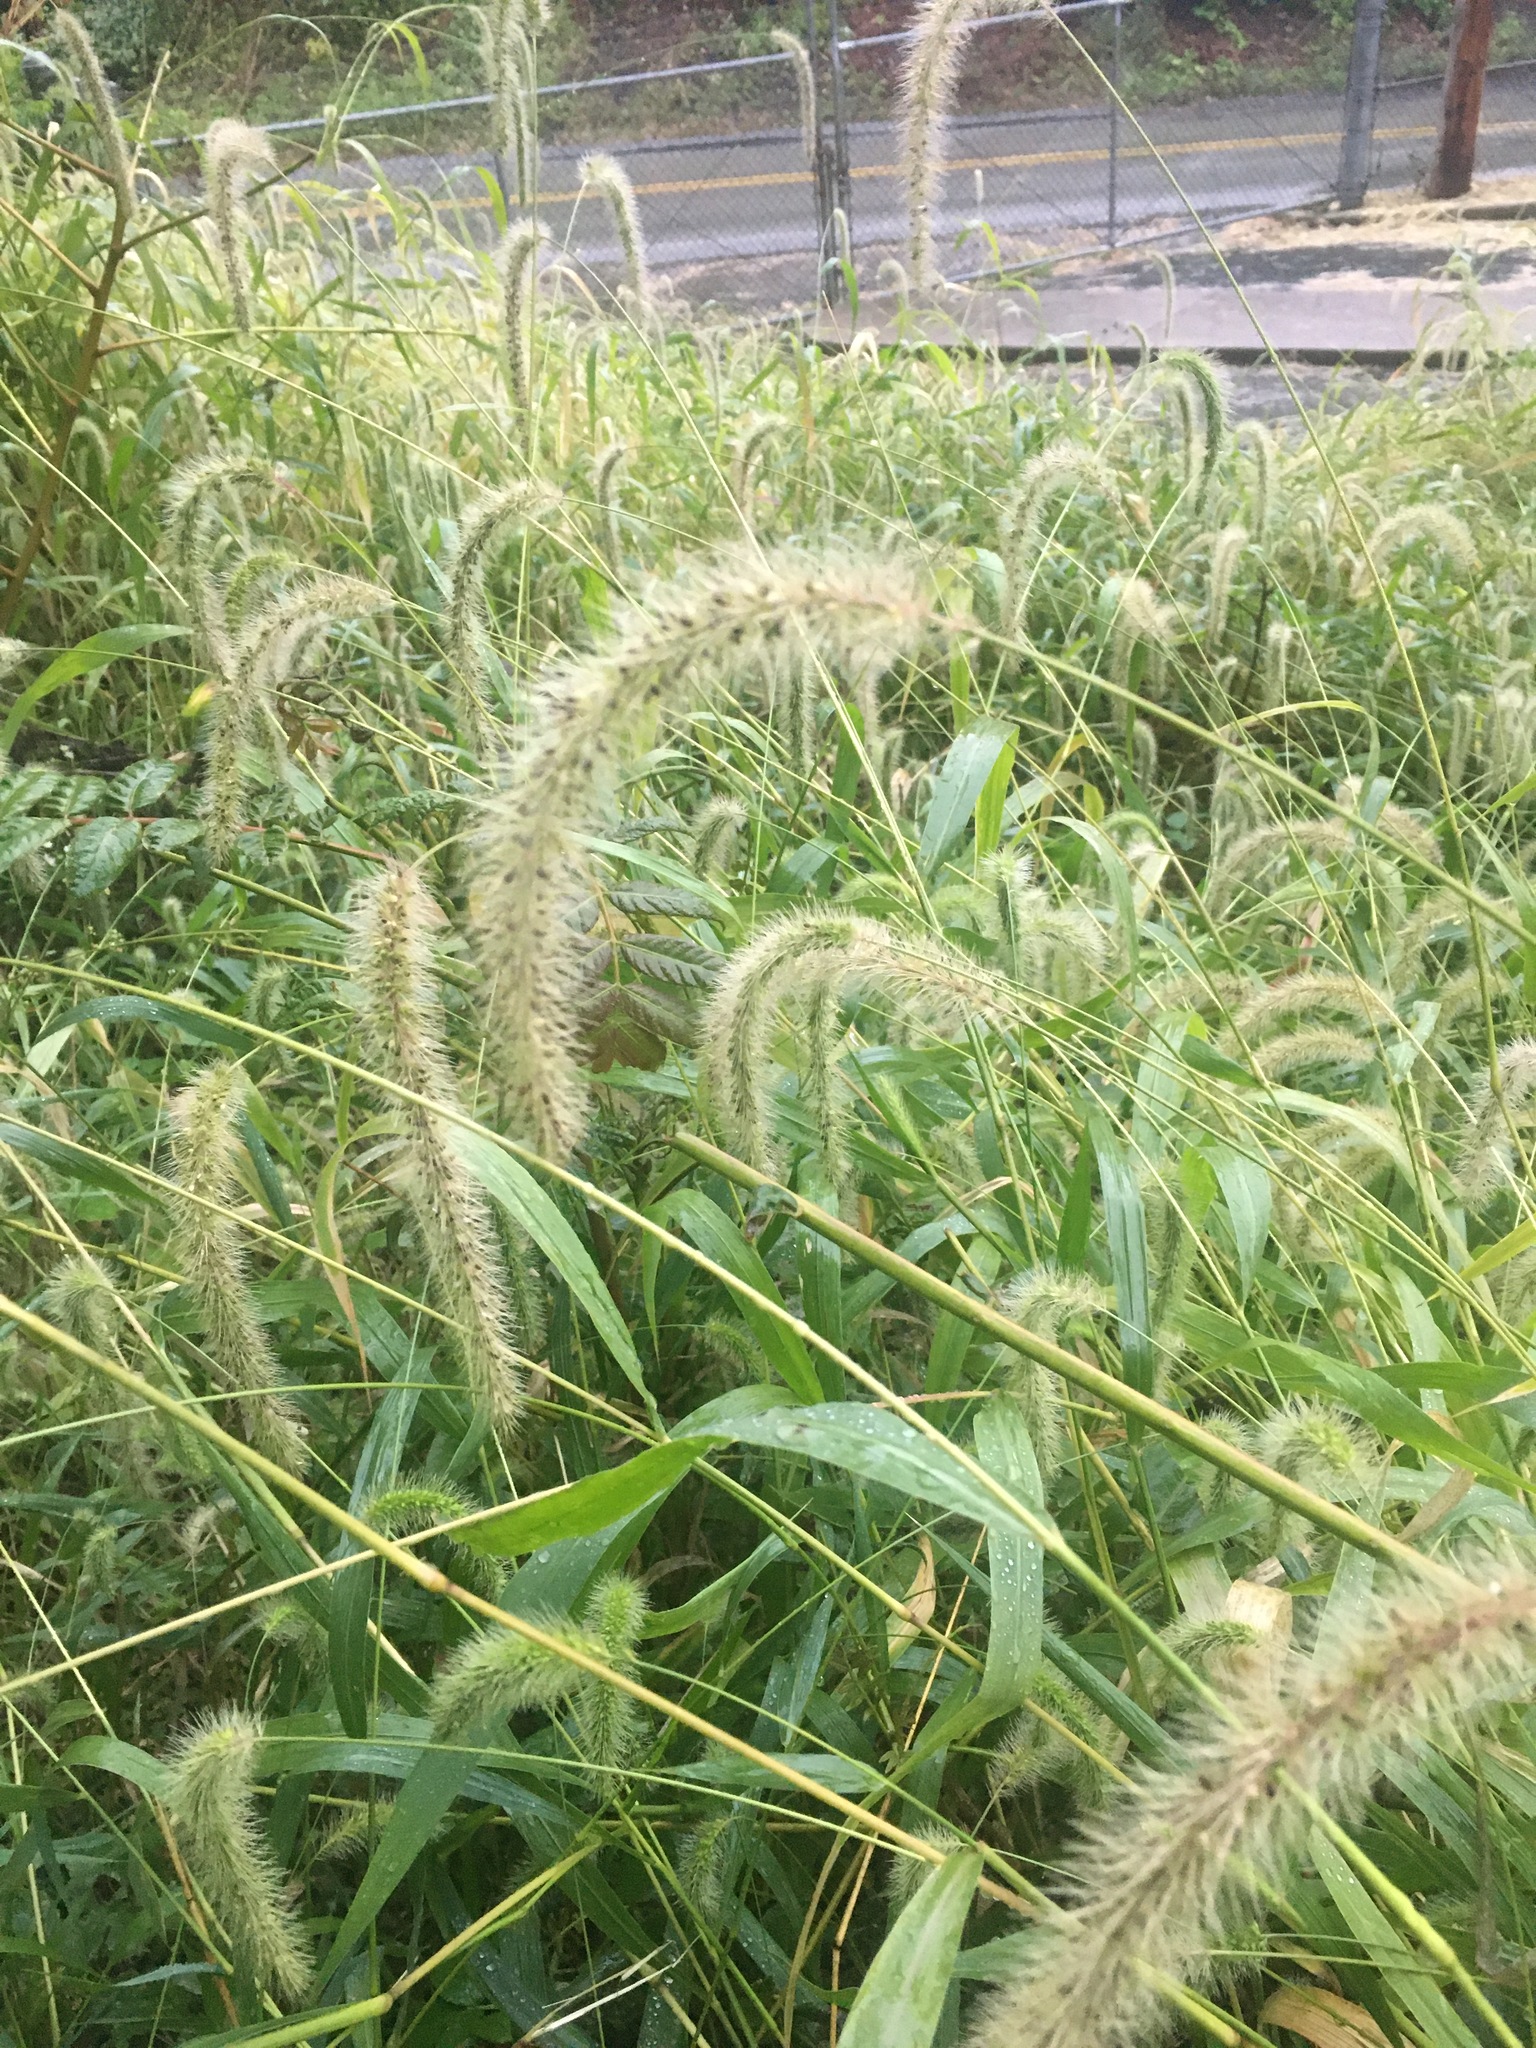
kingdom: Plantae
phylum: Tracheophyta
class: Liliopsida
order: Poales
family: Poaceae
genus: Setaria
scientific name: Setaria faberi
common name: Nodding bristle-grass
